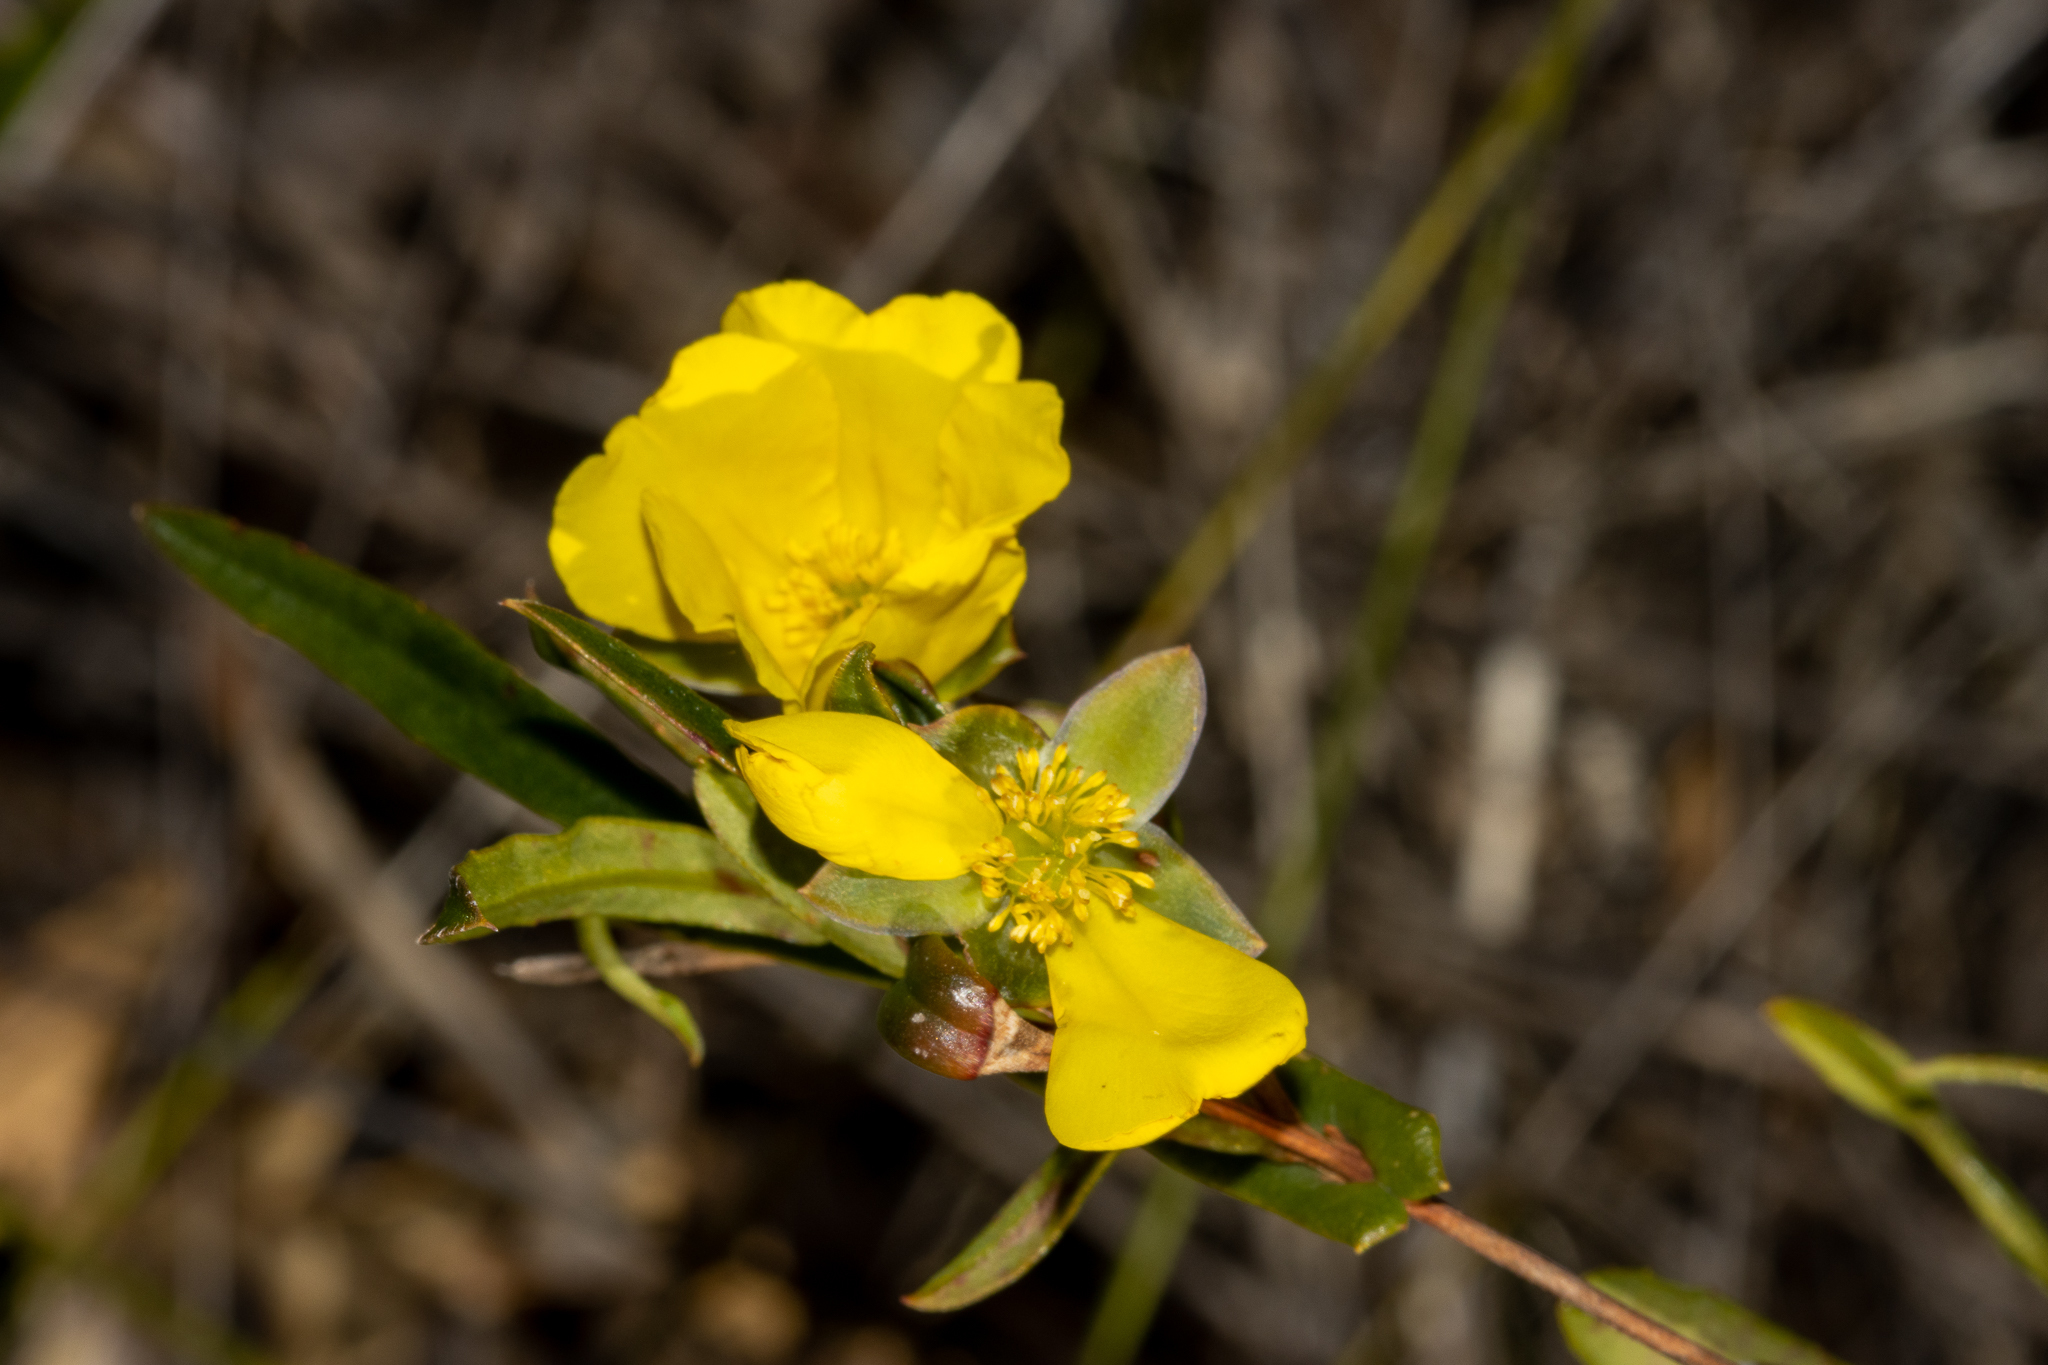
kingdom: Plantae
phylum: Tracheophyta
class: Magnoliopsida
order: Dilleniales
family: Dilleniaceae
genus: Hibbertia
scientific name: Hibbertia cunninghamii
